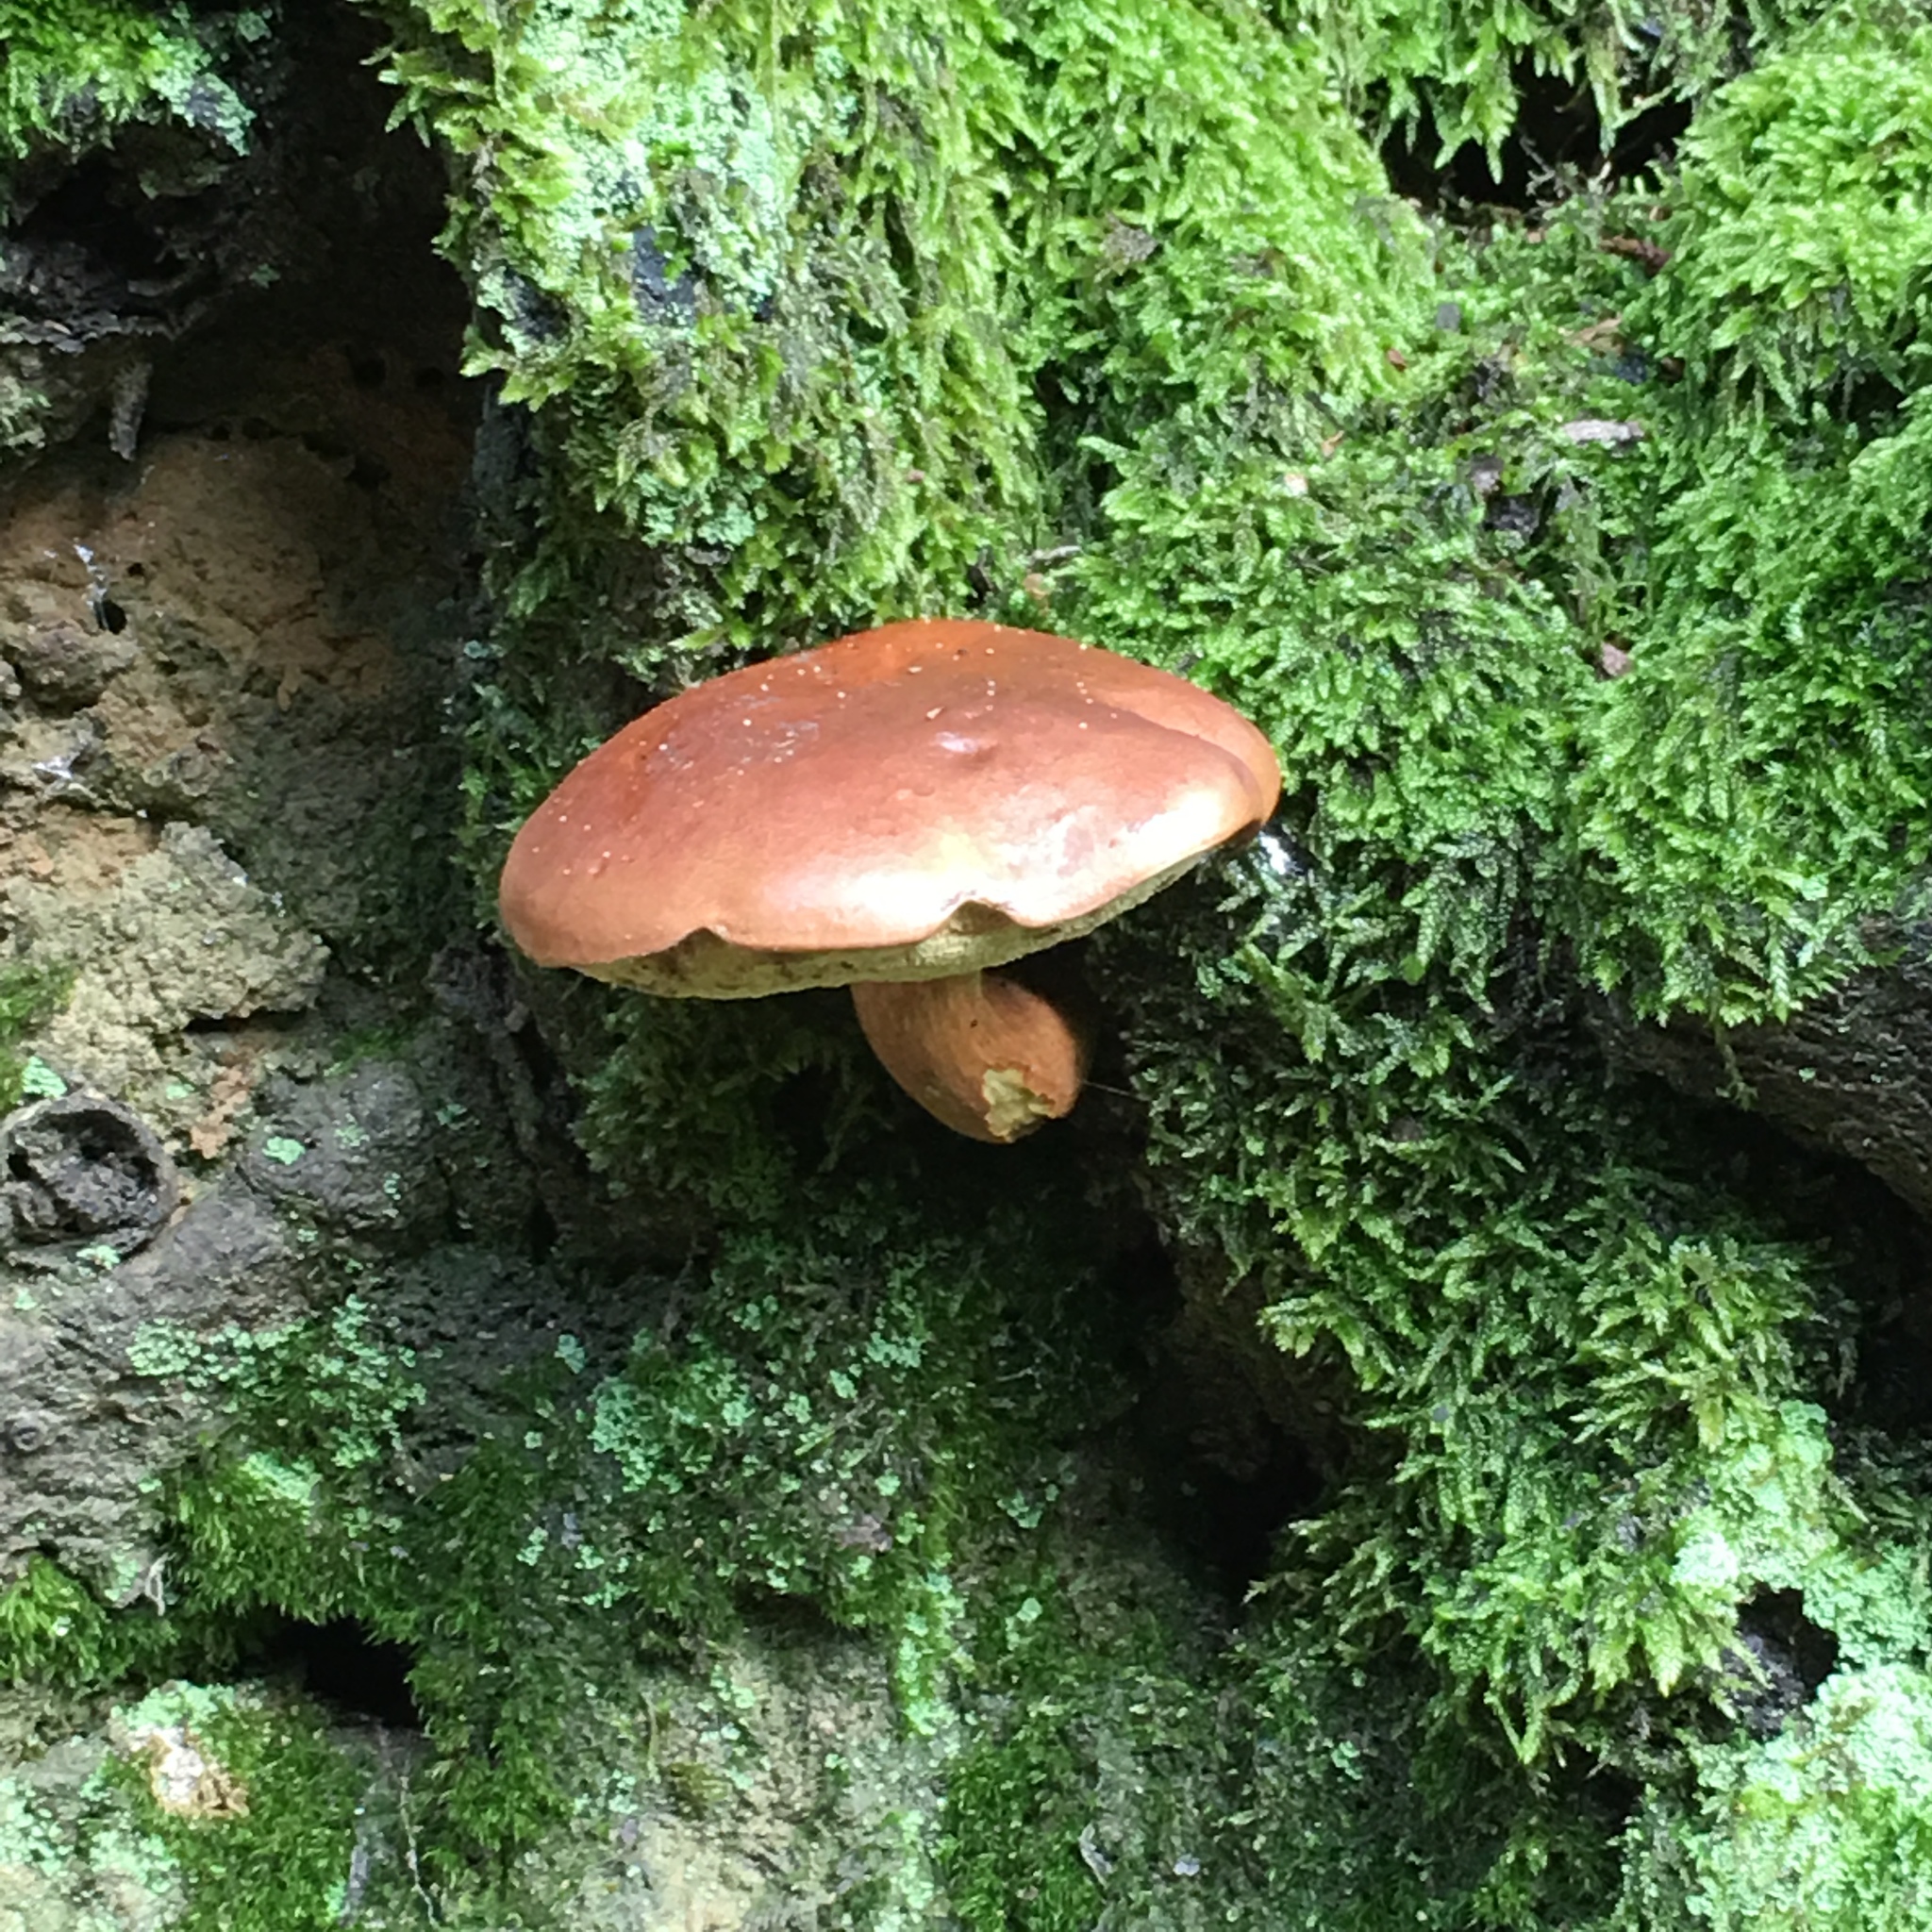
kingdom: Fungi
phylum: Basidiomycota
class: Agaricomycetes
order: Boletales
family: Boletaceae
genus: Imleria
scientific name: Imleria badia
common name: Bay bolete
